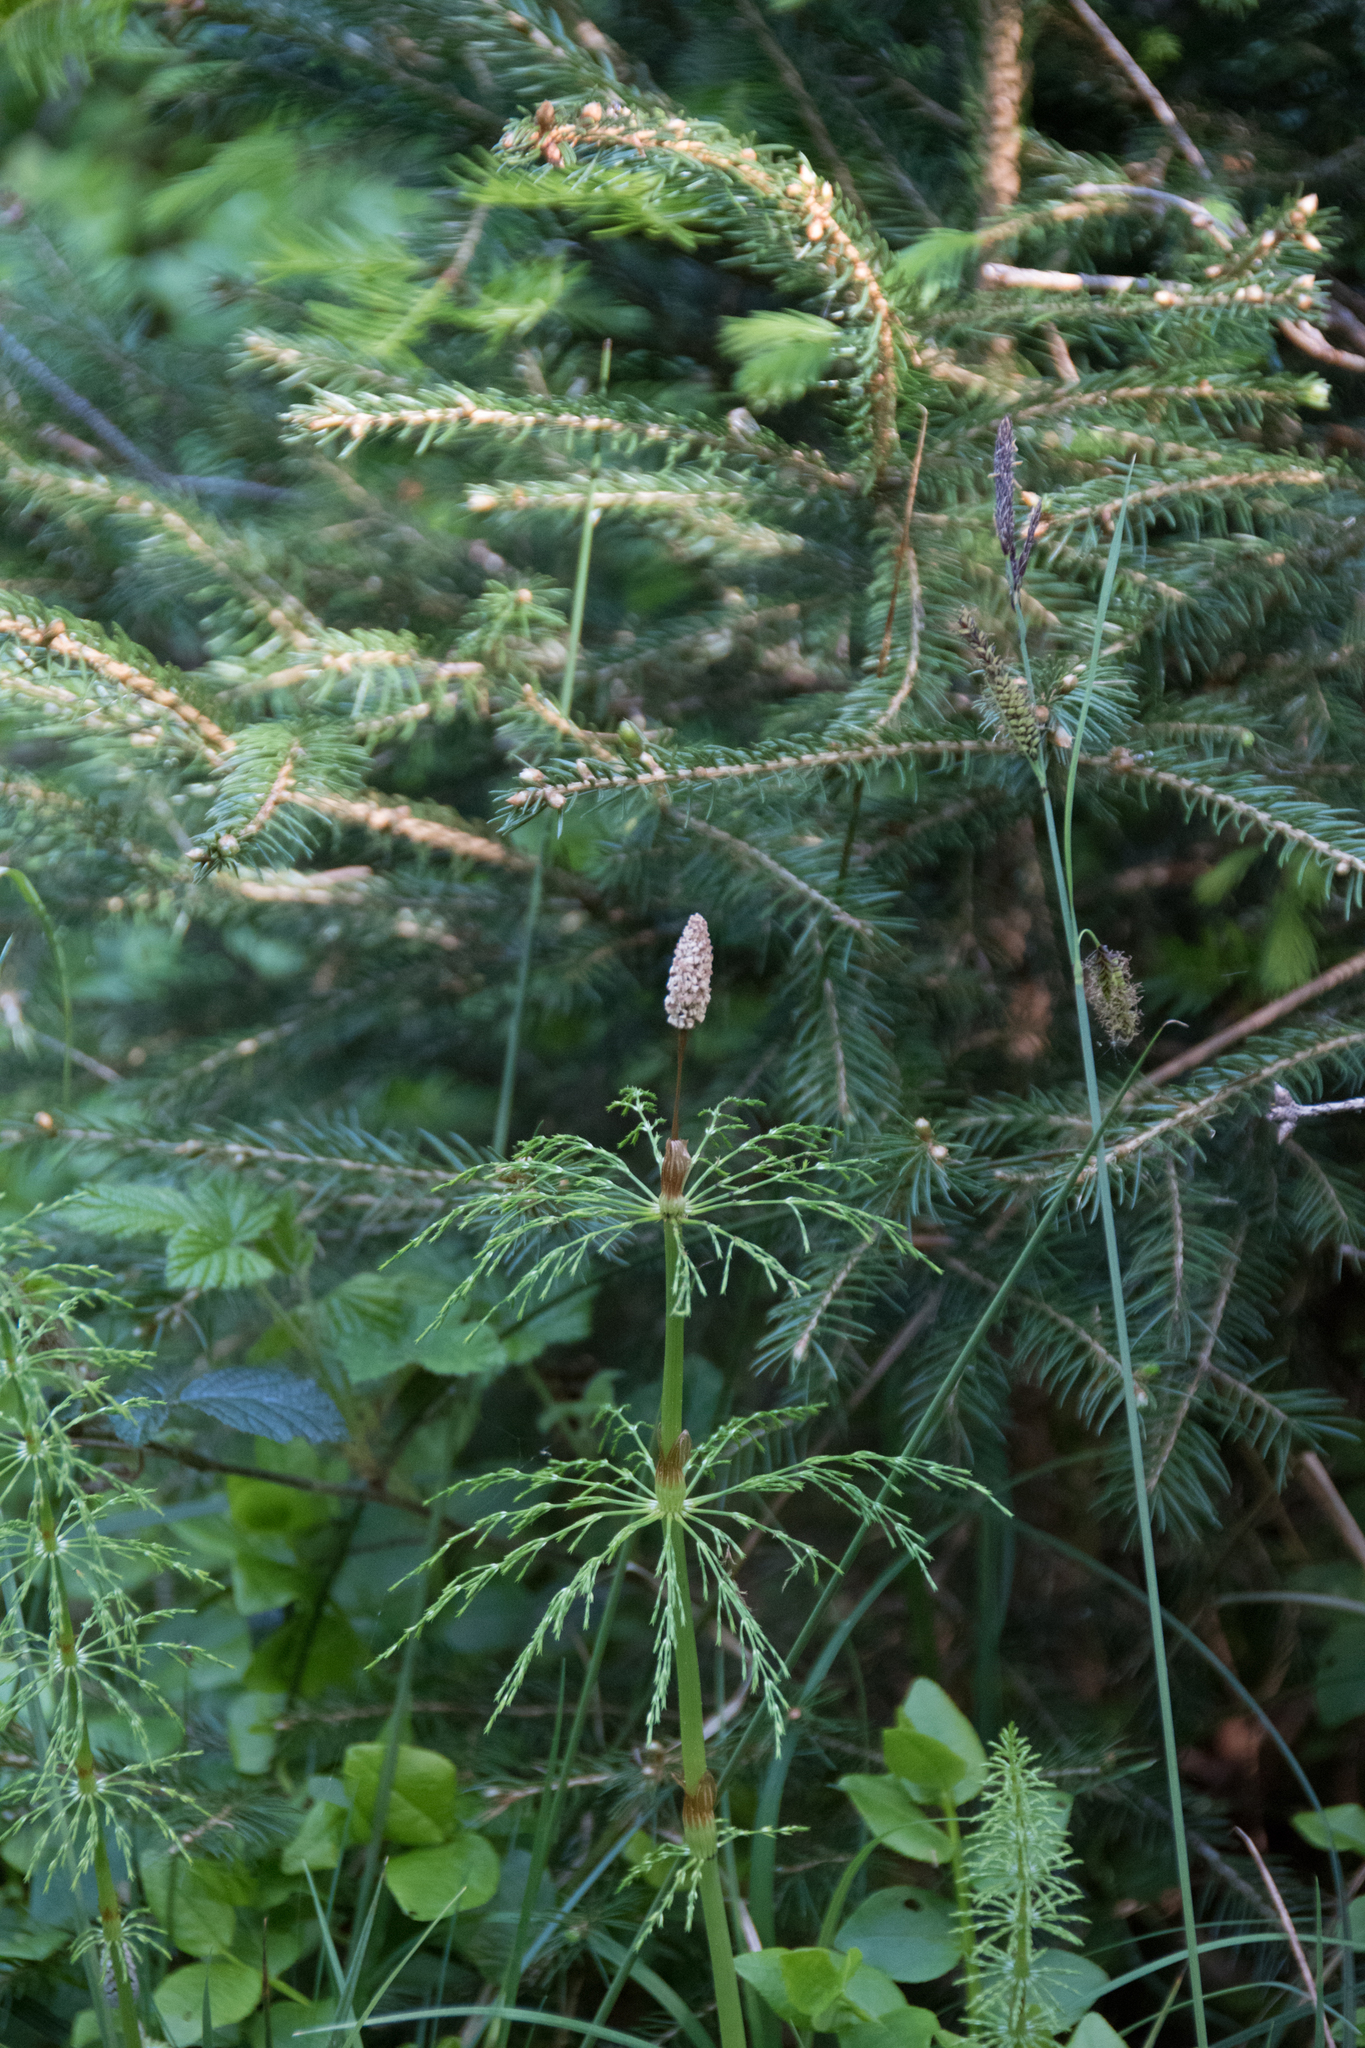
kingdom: Plantae
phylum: Tracheophyta
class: Polypodiopsida
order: Equisetales
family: Equisetaceae
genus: Equisetum
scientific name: Equisetum sylvaticum
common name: Wood horsetail
